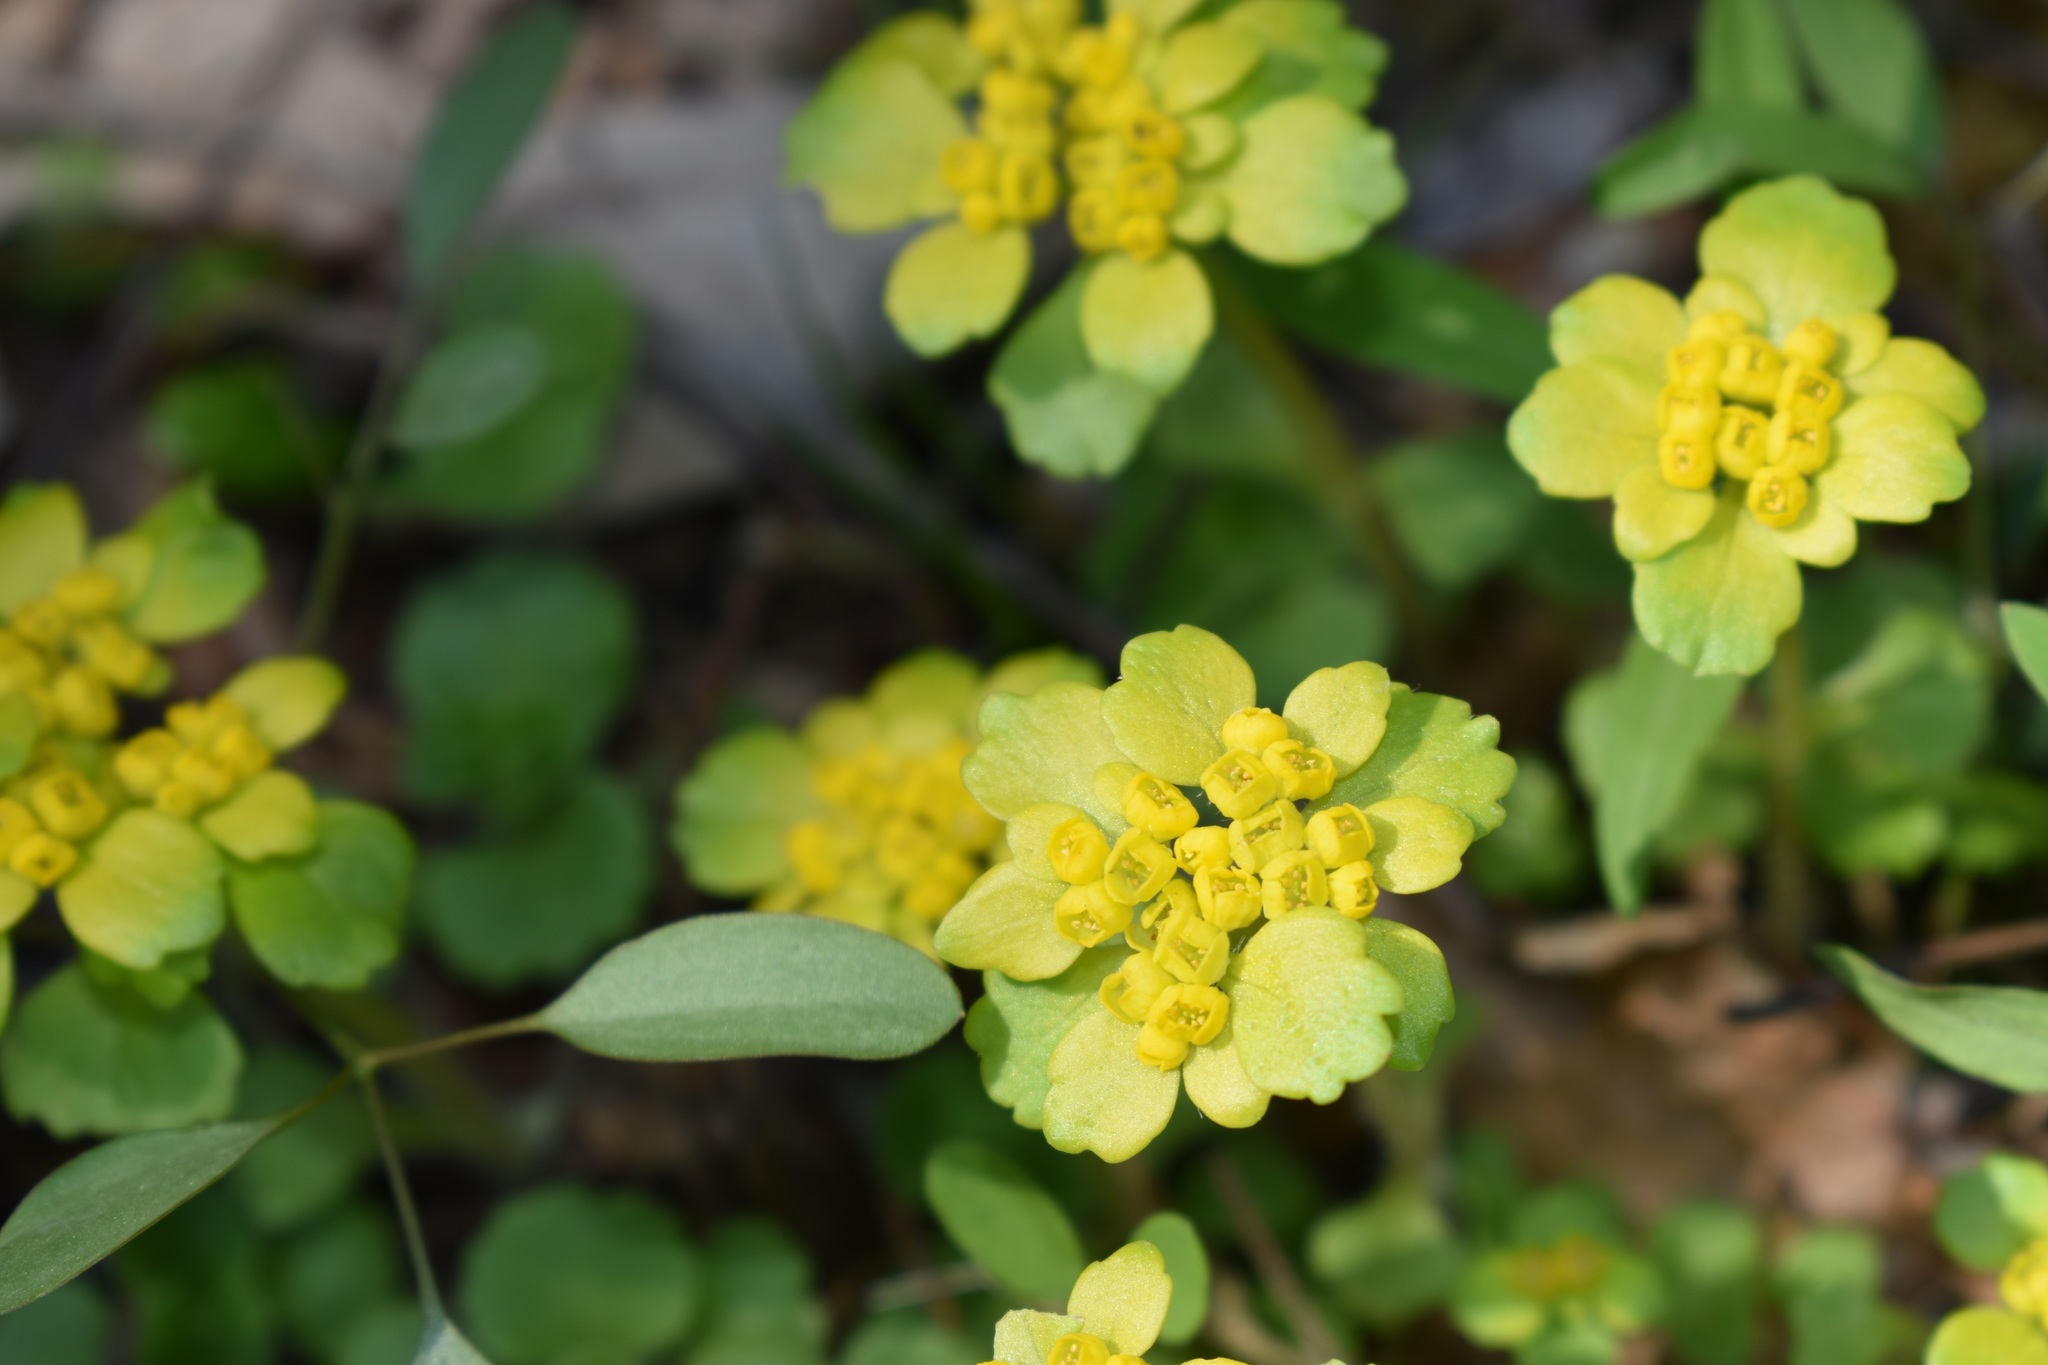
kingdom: Plantae
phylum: Tracheophyta
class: Magnoliopsida
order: Saxifragales
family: Saxifragaceae
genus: Chrysosplenium
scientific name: Chrysosplenium pilosum
